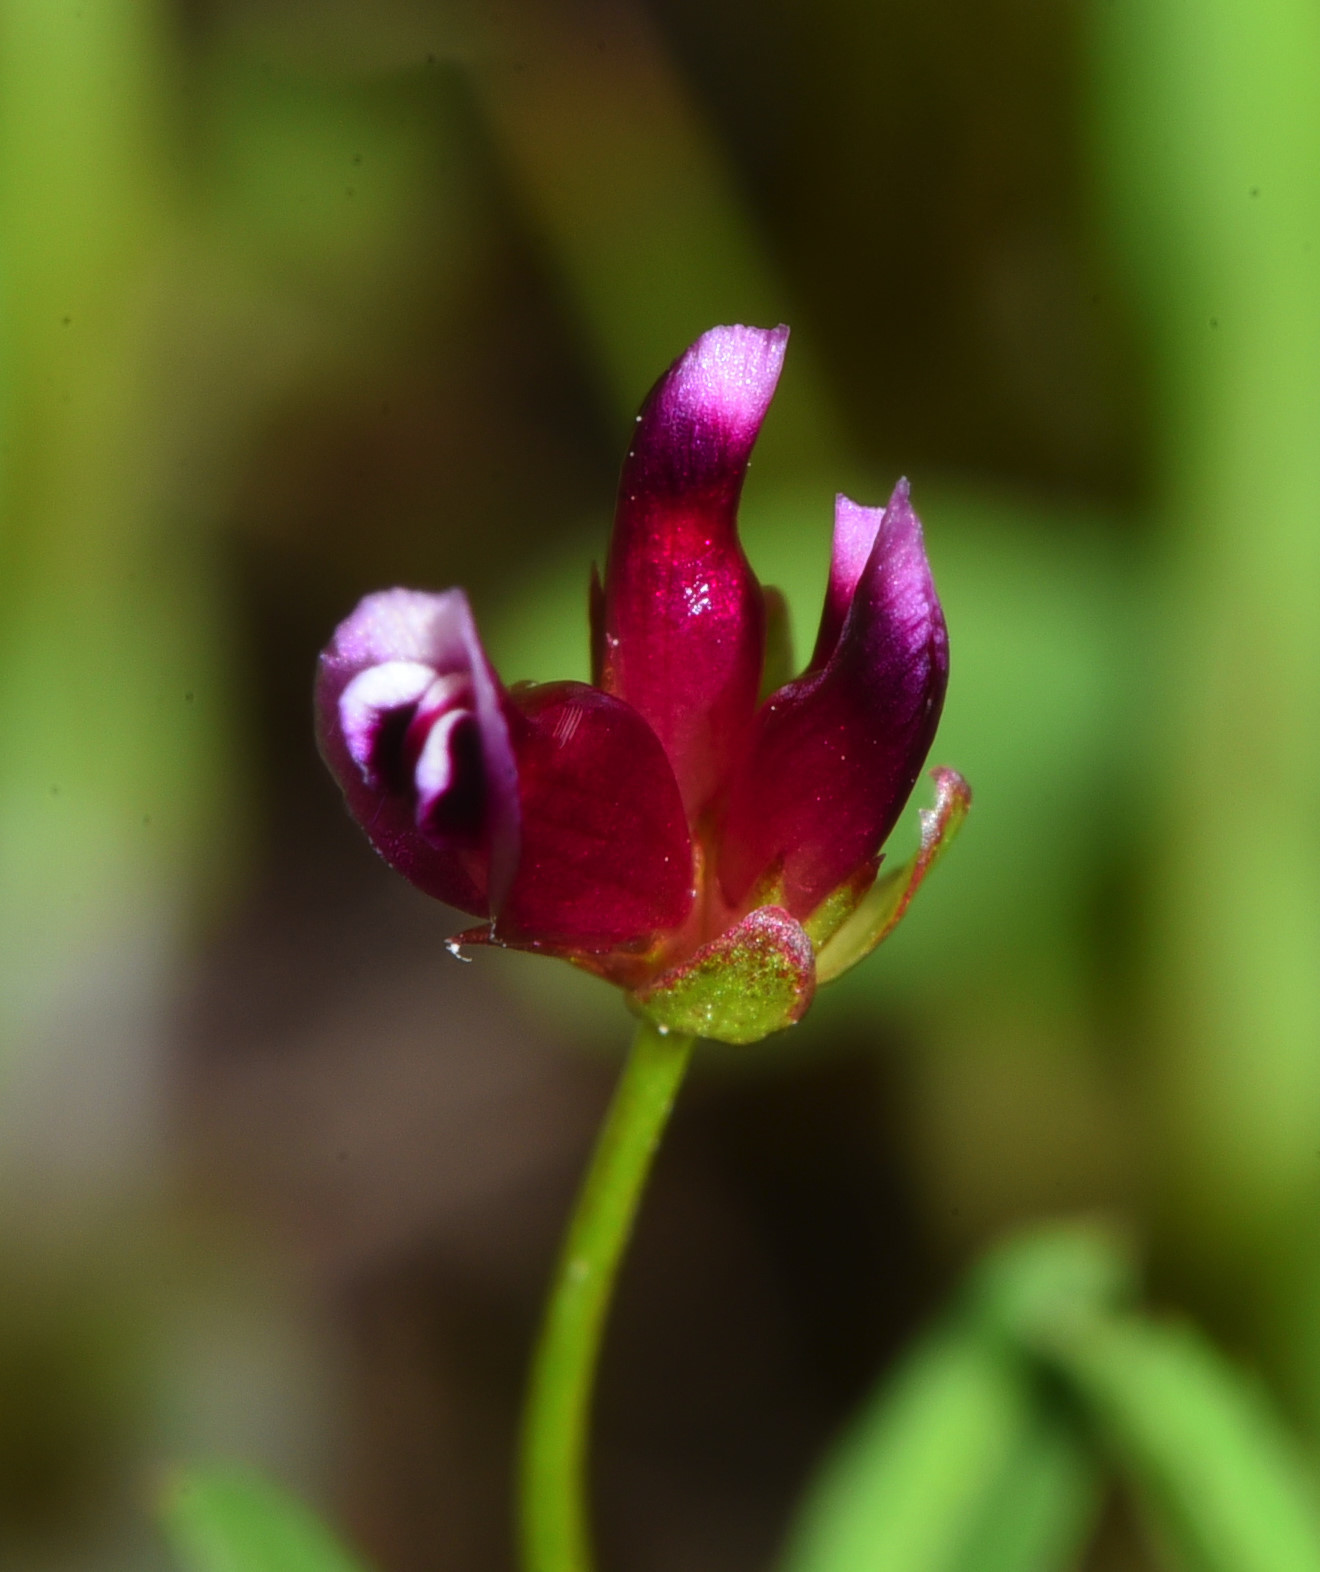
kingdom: Plantae
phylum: Tracheophyta
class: Magnoliopsida
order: Fabales
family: Fabaceae
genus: Trifolium
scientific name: Trifolium amplectens
